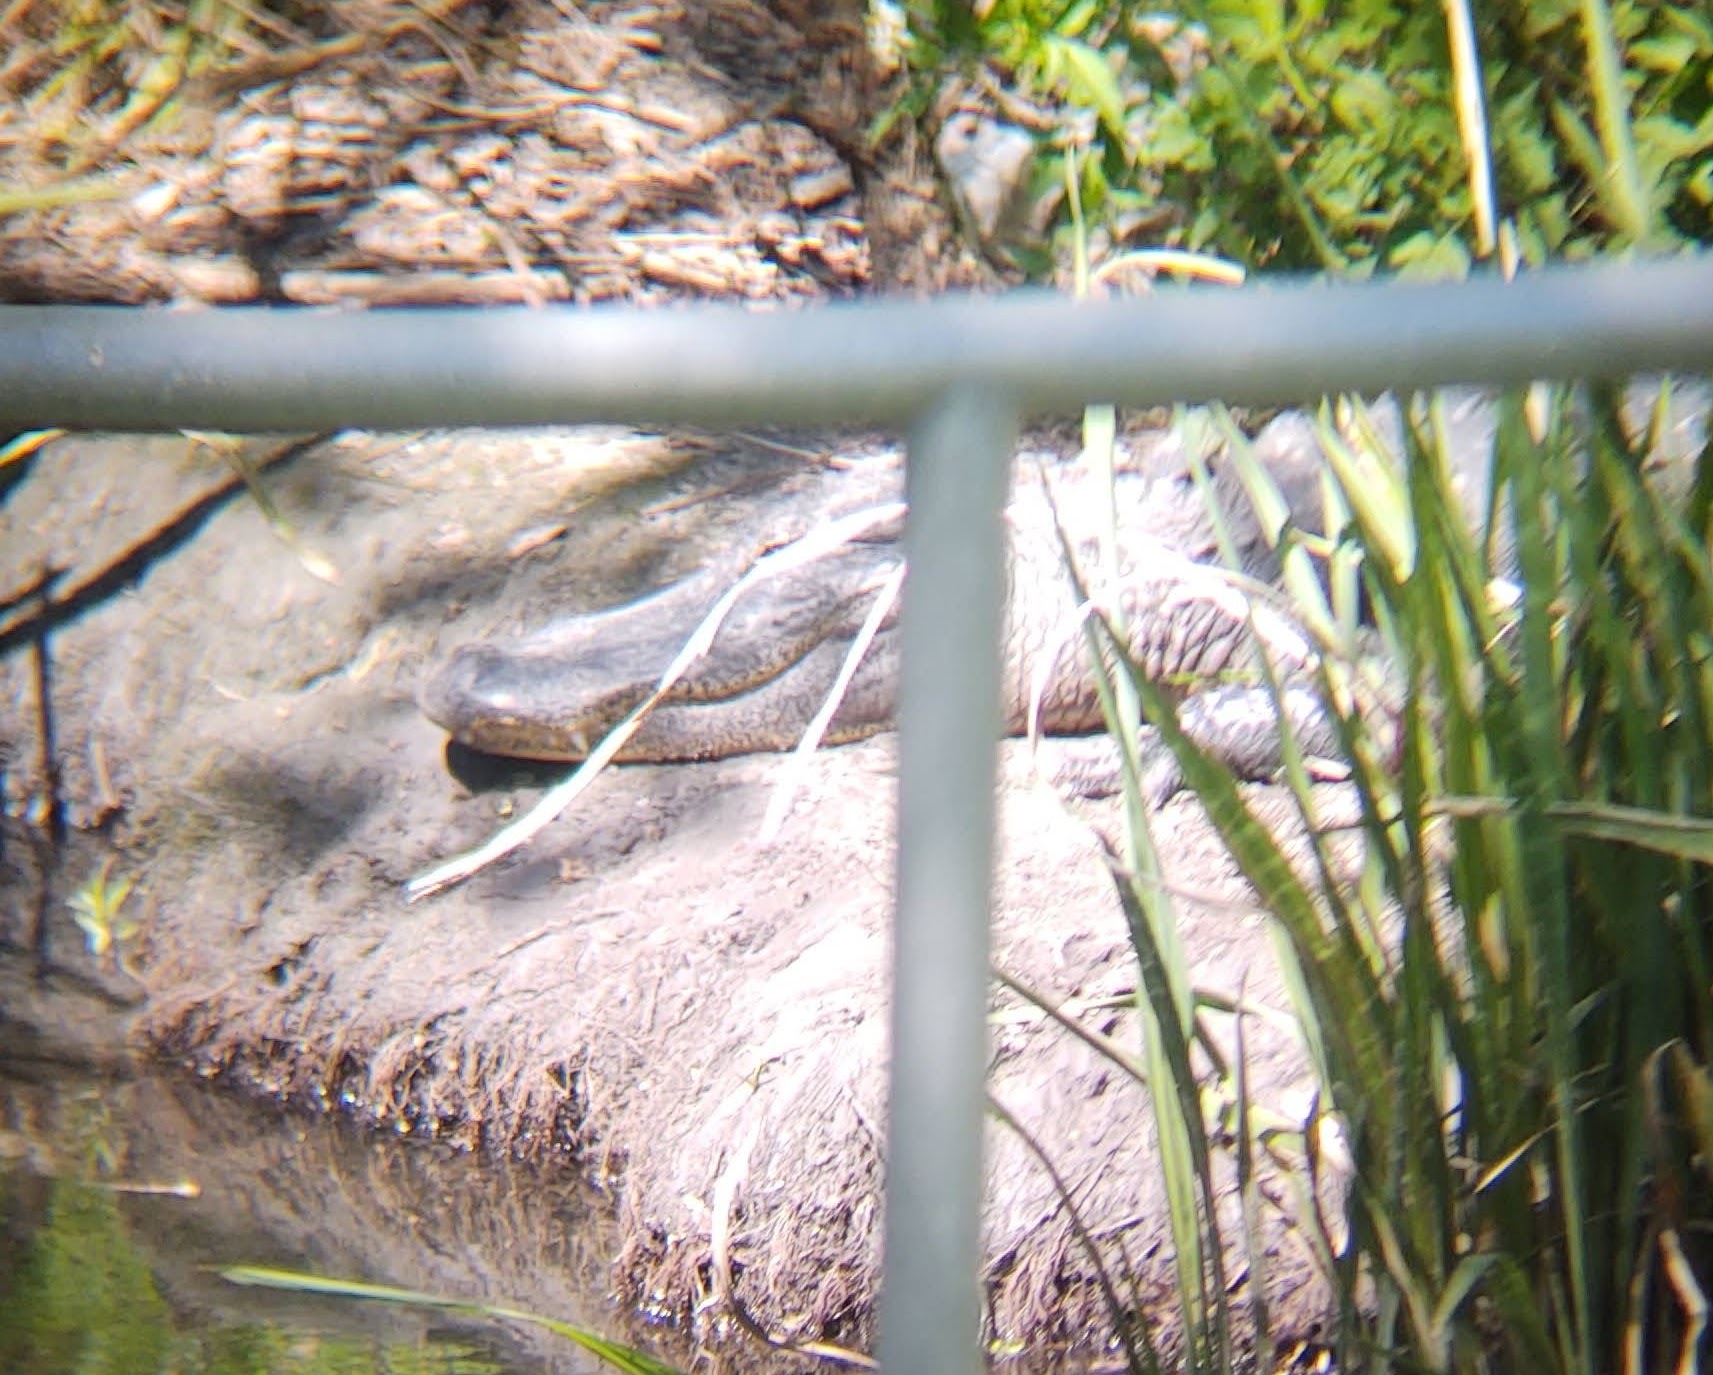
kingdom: Animalia
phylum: Chordata
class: Crocodylia
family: Alligatoridae
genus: Alligator
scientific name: Alligator mississippiensis
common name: American alligator
